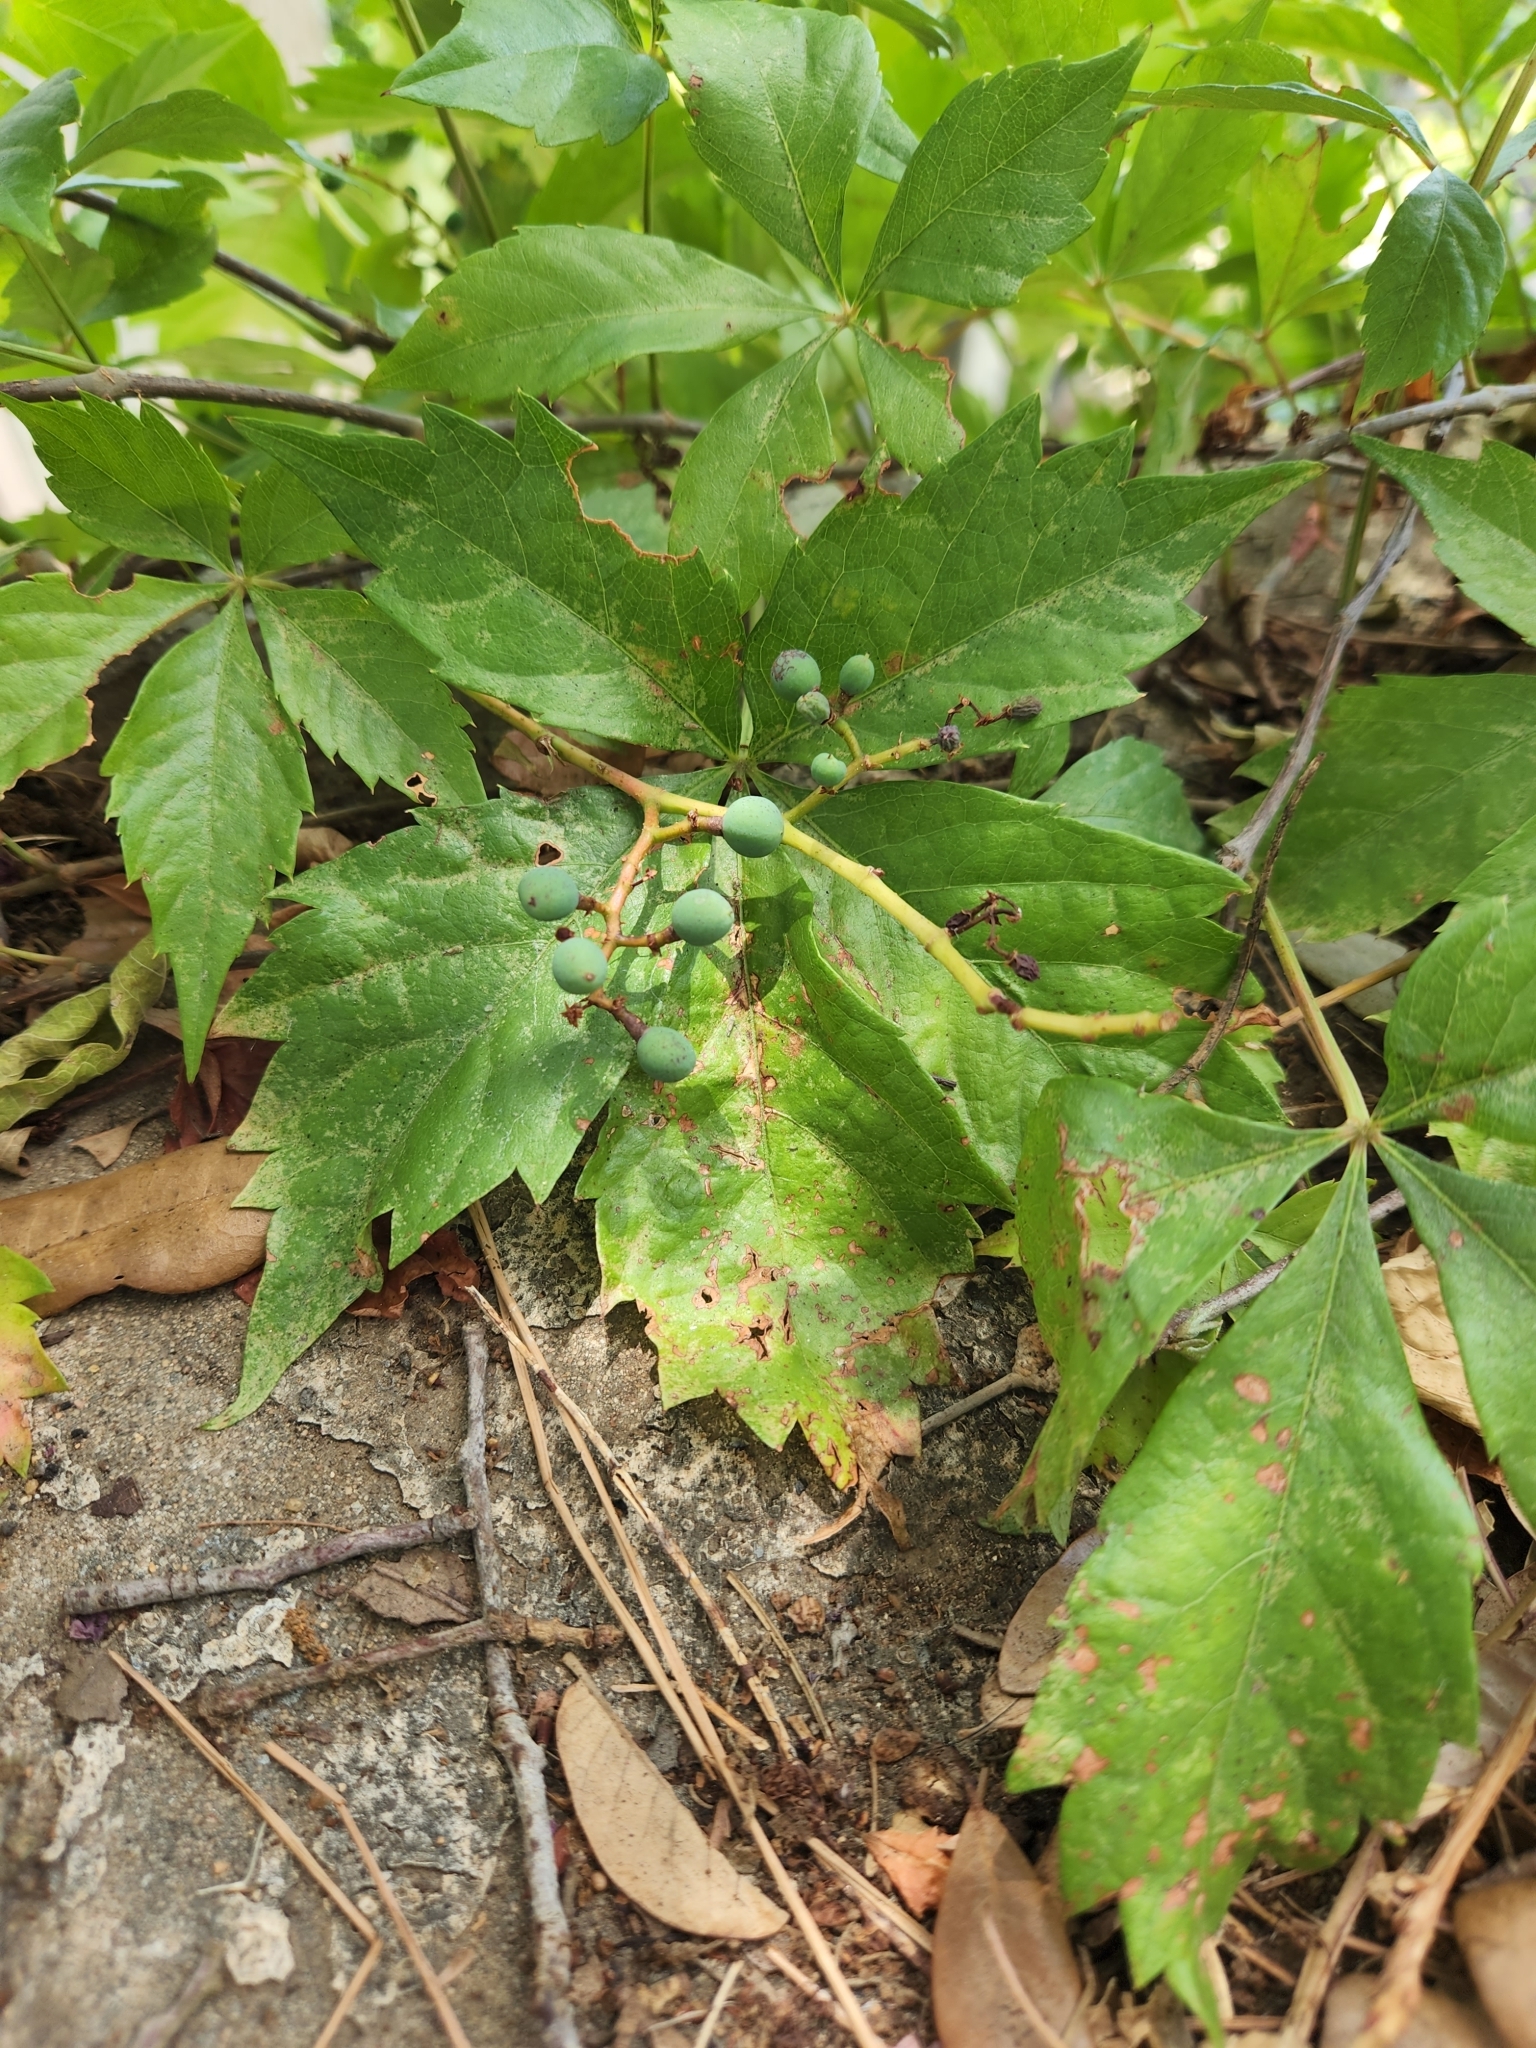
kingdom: Plantae
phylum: Tracheophyta
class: Magnoliopsida
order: Vitales
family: Vitaceae
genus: Parthenocissus
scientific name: Parthenocissus quinquefolia
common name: Virginia-creeper
